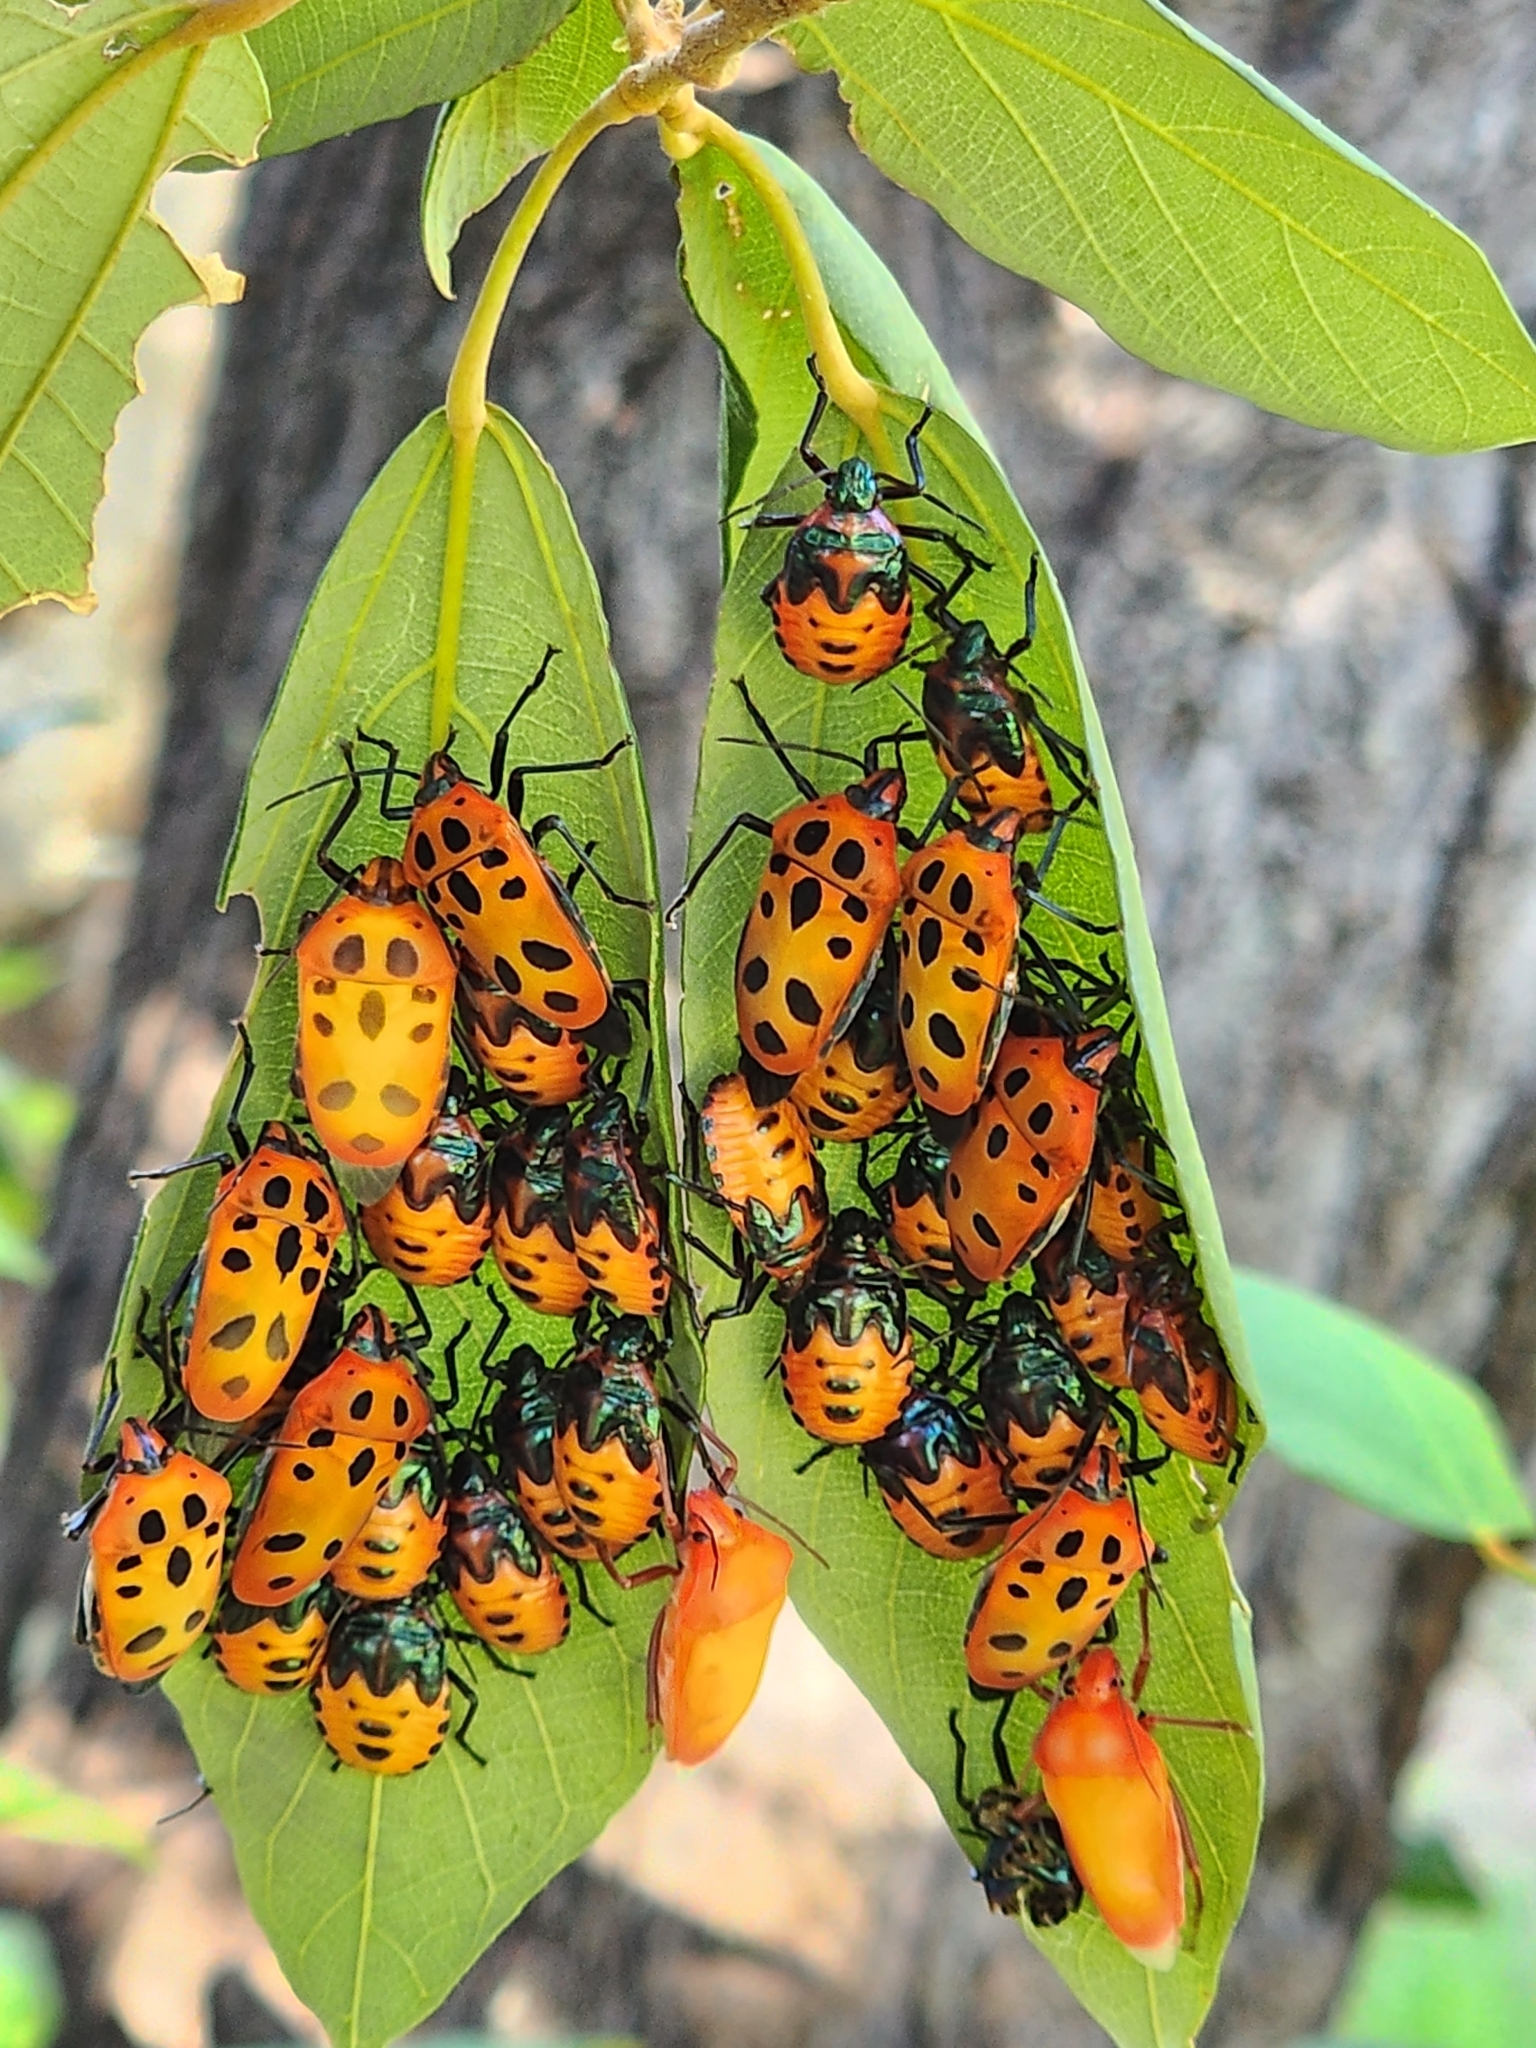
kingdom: Animalia
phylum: Arthropoda
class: Insecta
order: Hemiptera
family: Scutelleridae
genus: Cantao
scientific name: Cantao
